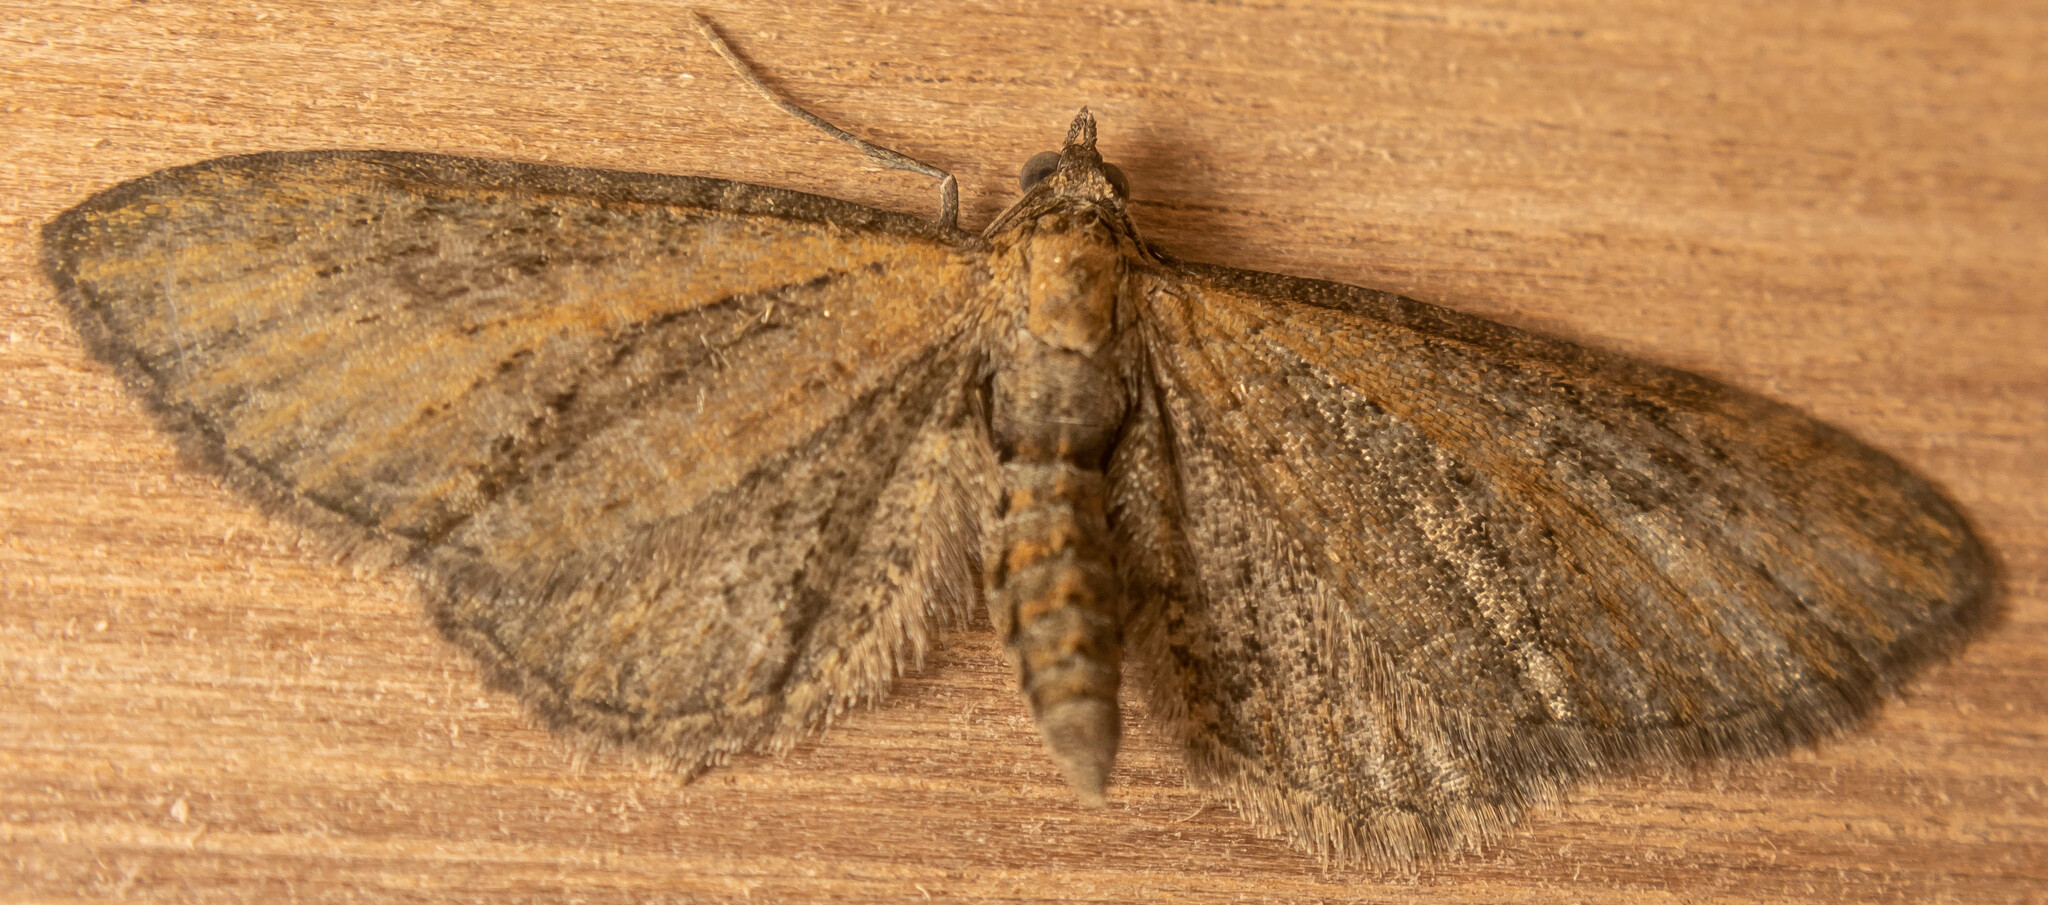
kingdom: Animalia
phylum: Arthropoda
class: Insecta
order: Lepidoptera
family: Geometridae
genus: Eupithecia
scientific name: Eupithecia vulgata
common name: Common pug
